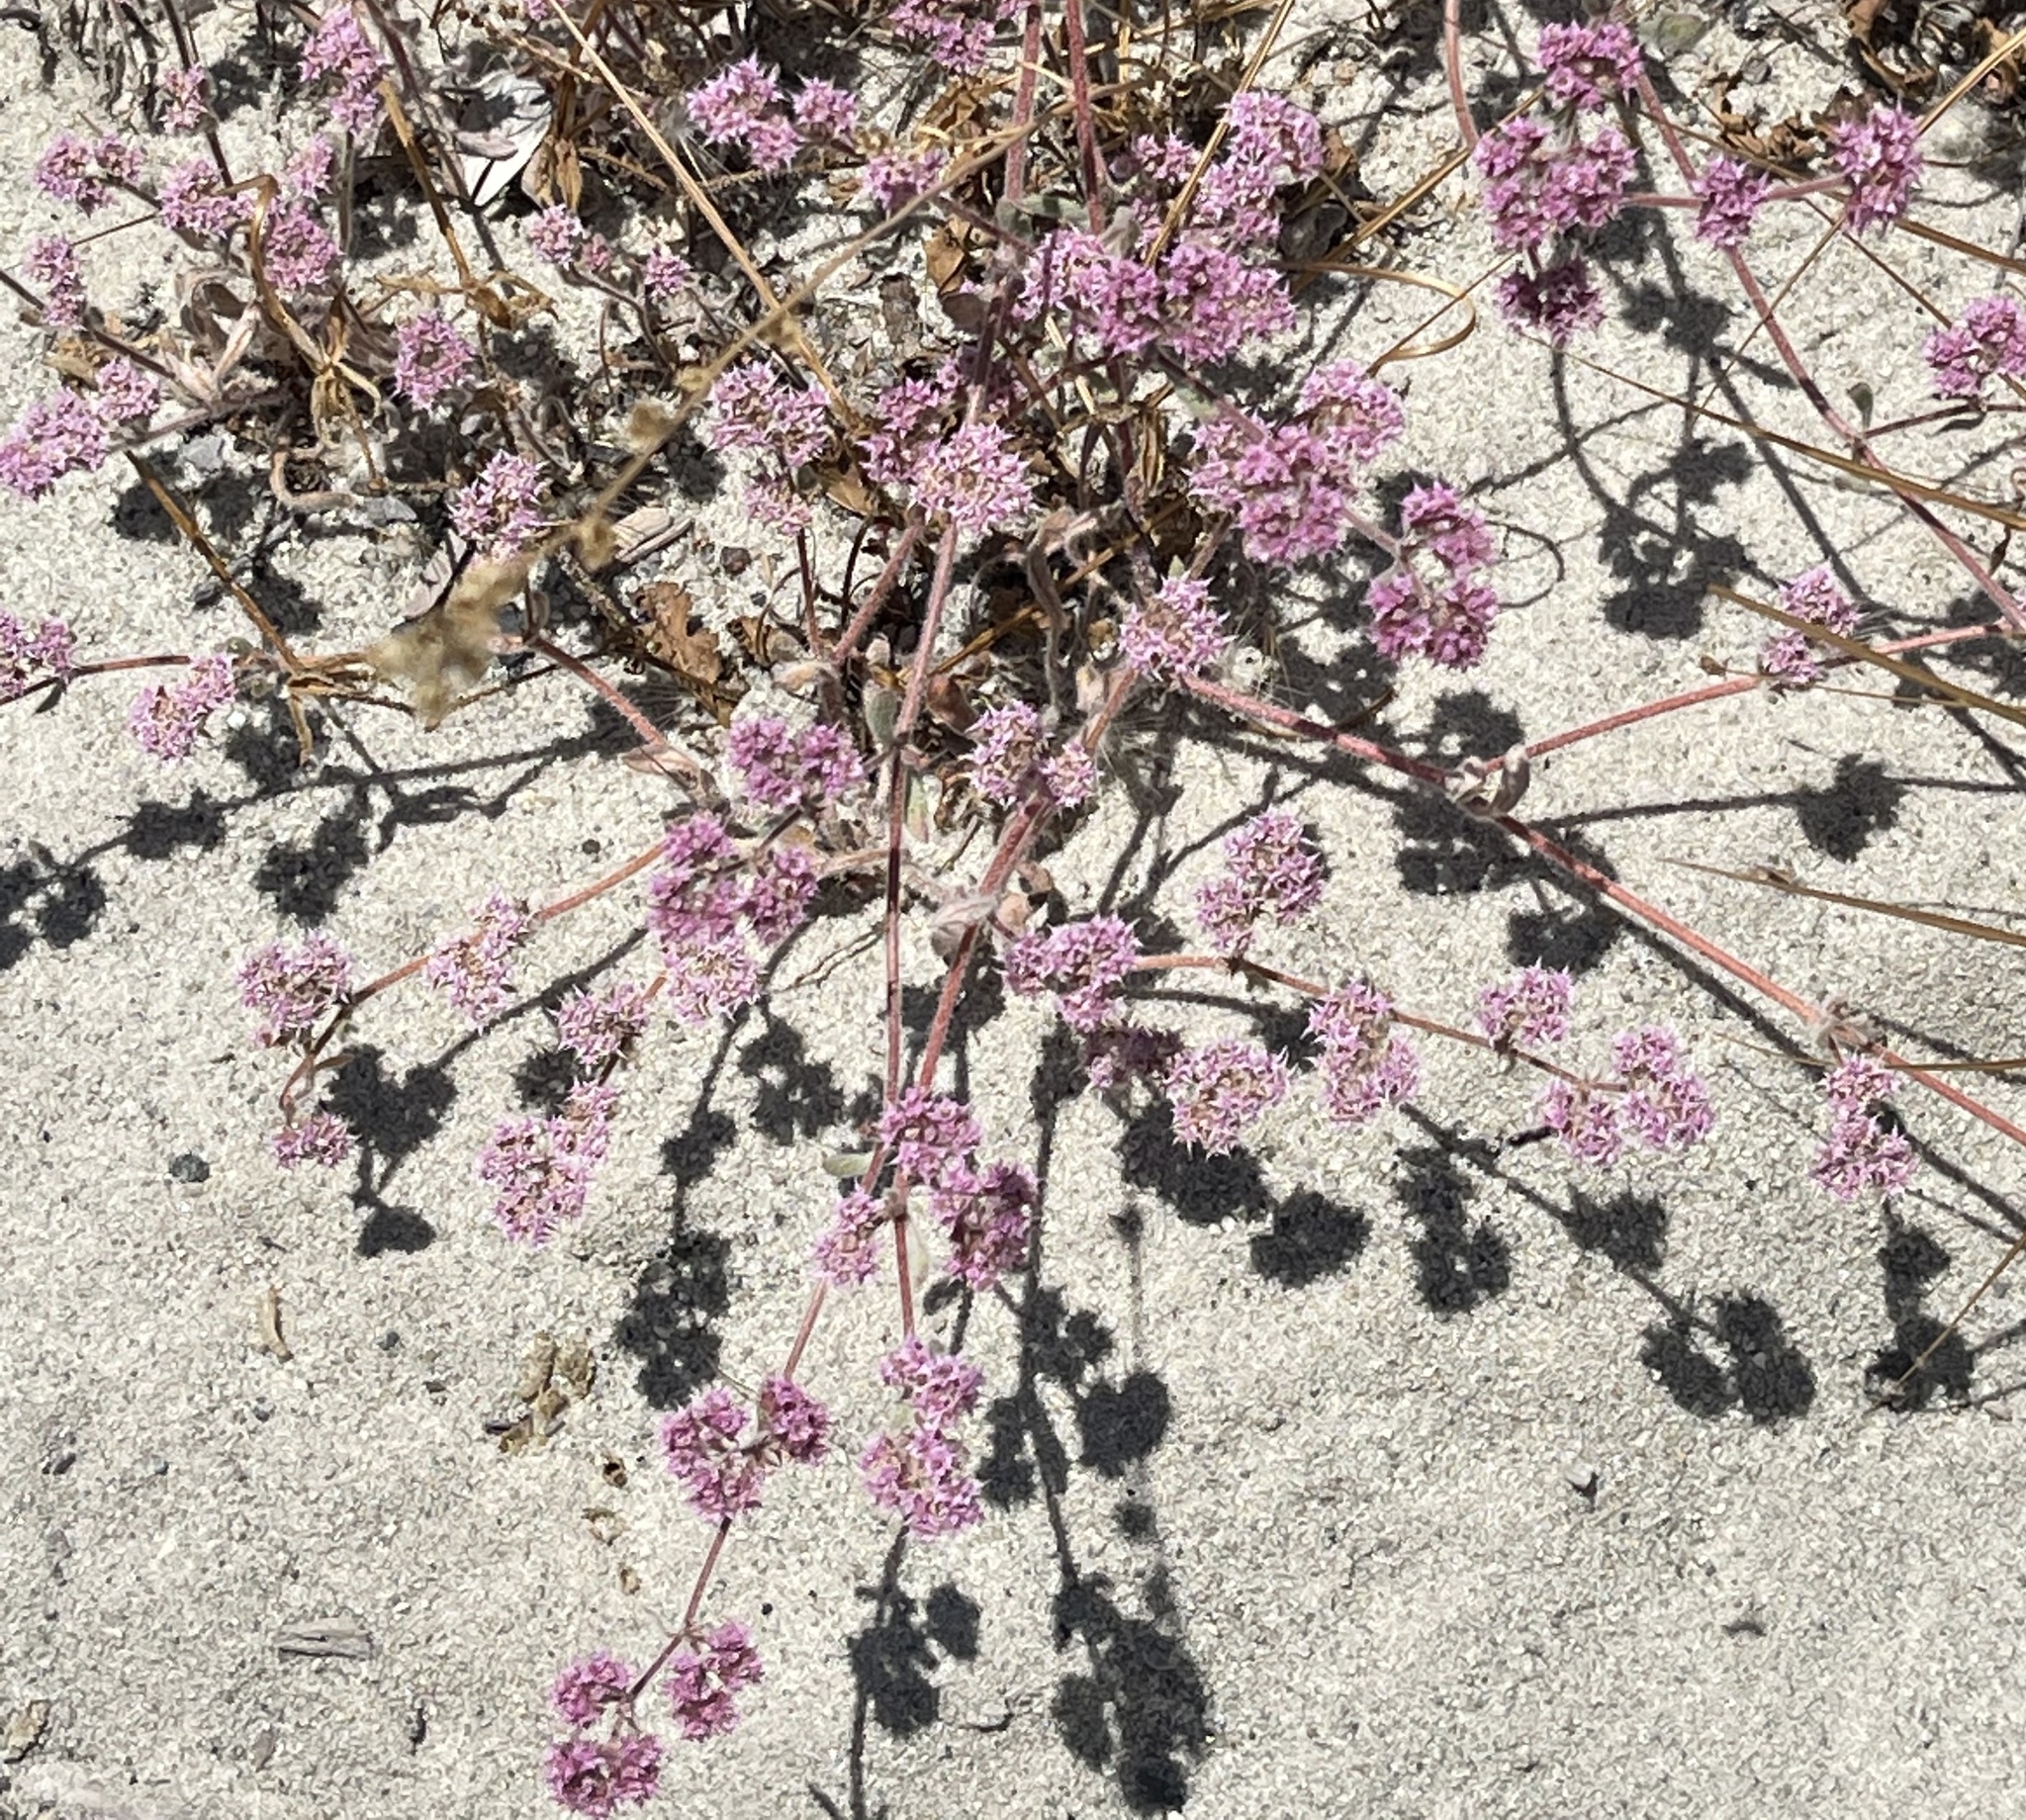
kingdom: Plantae
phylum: Tracheophyta
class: Magnoliopsida
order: Caryophyllales
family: Polygonaceae
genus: Chorizanthe
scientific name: Chorizanthe pungens
